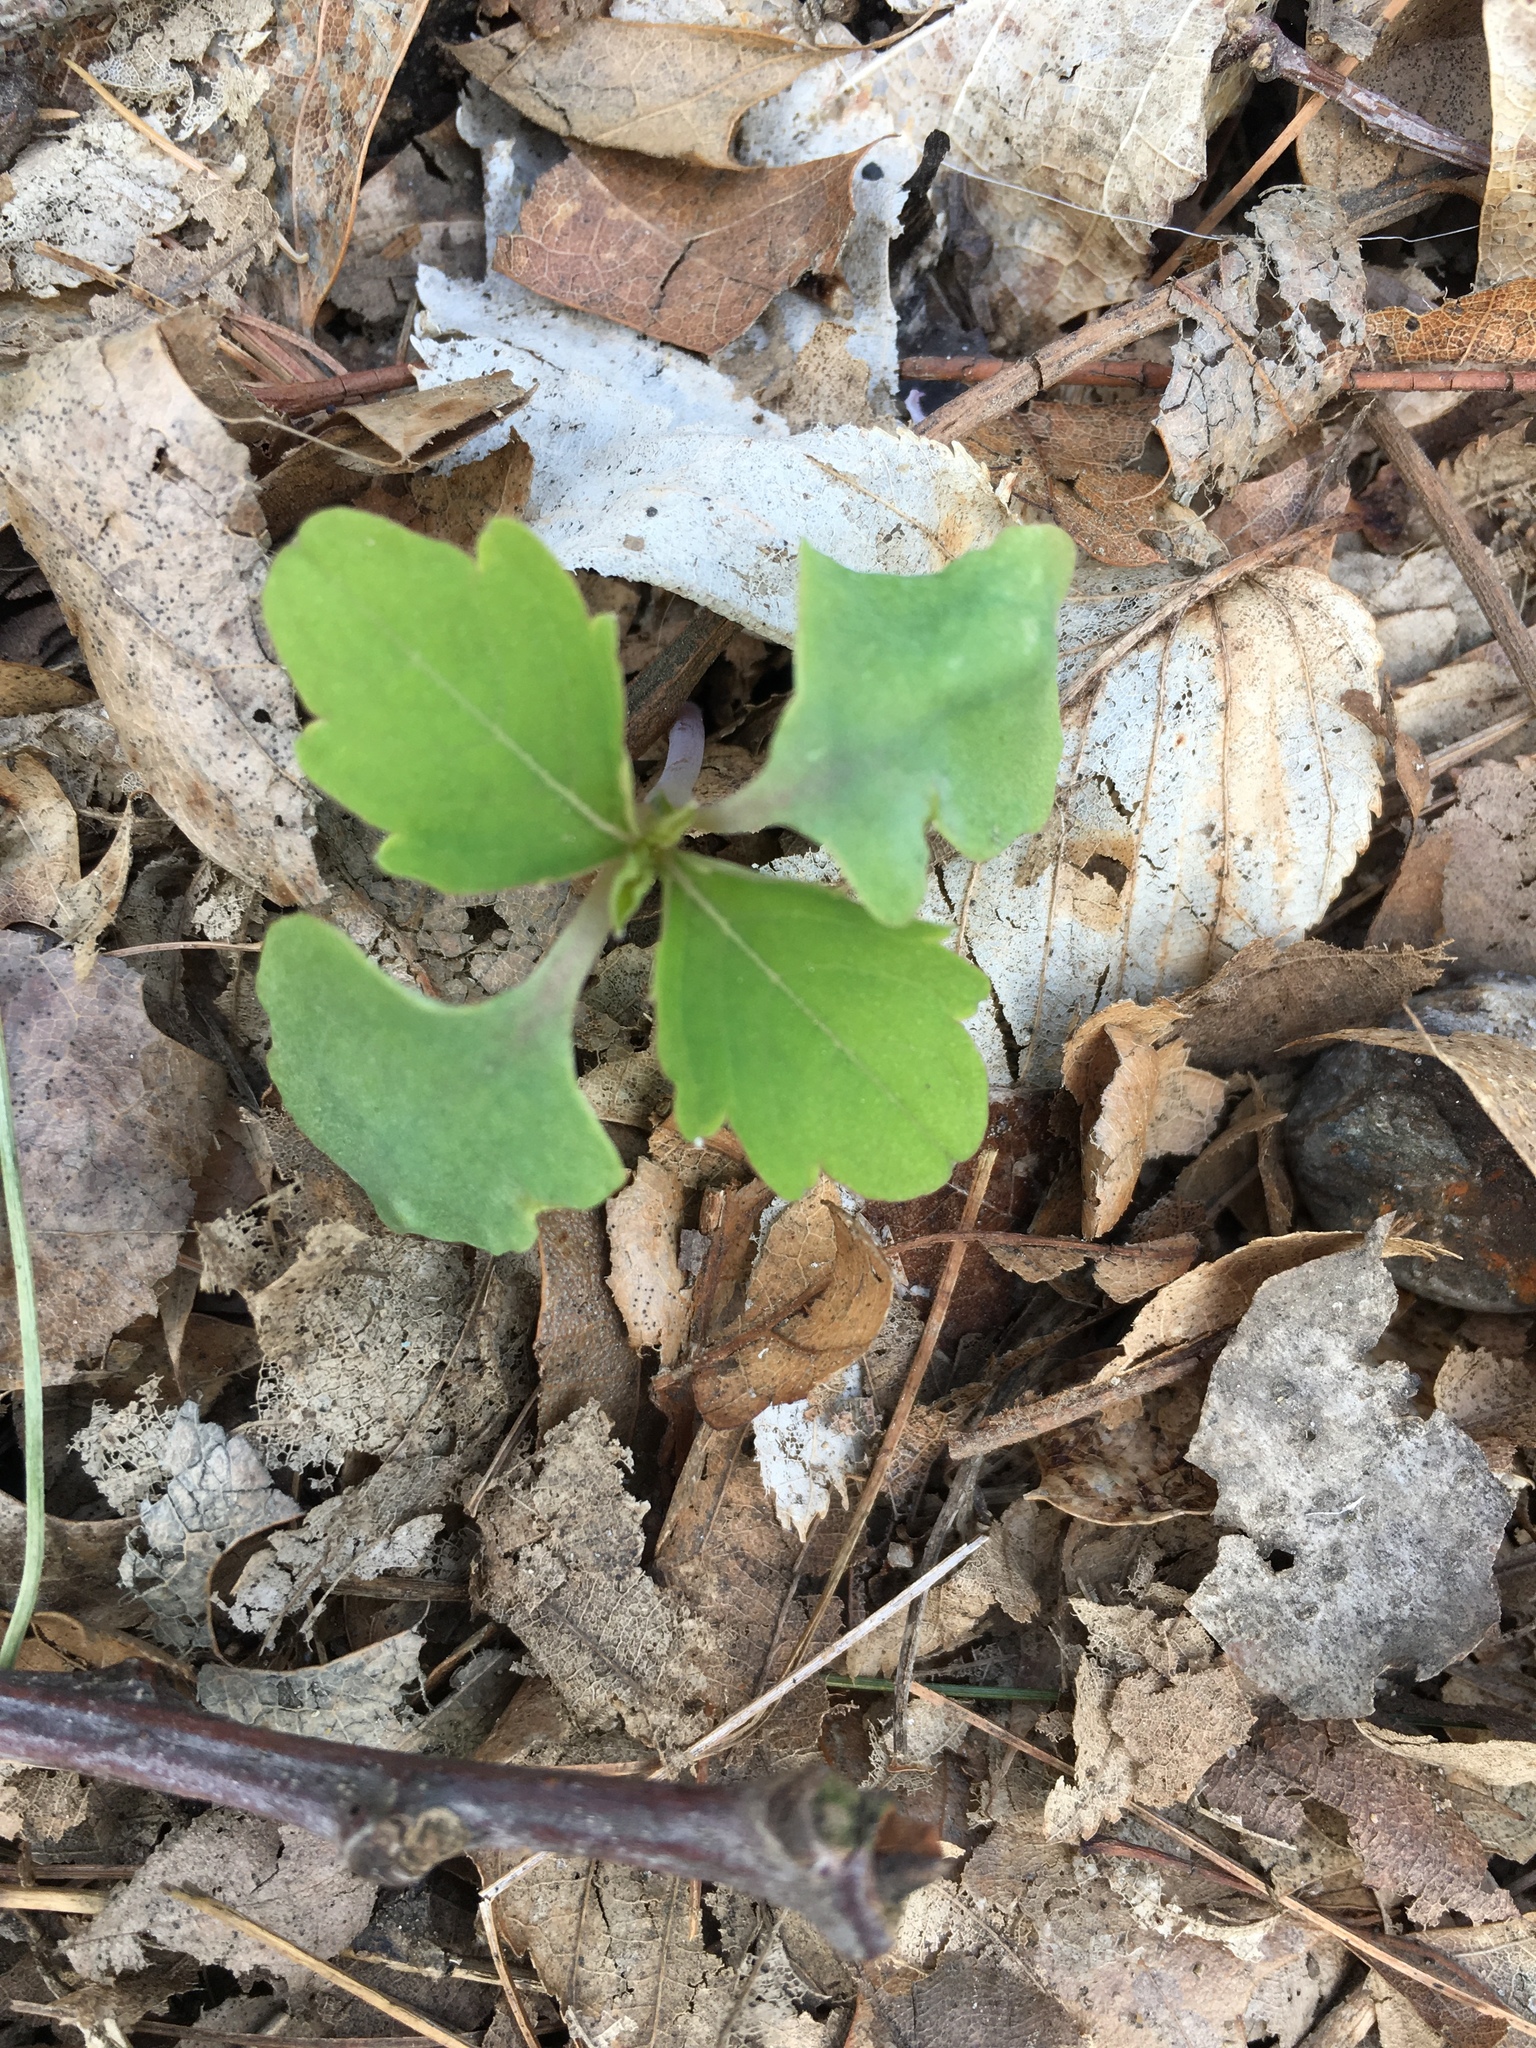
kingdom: Plantae
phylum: Tracheophyta
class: Magnoliopsida
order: Ericales
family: Balsaminaceae
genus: Impatiens
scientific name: Impatiens capensis
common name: Orange balsam
